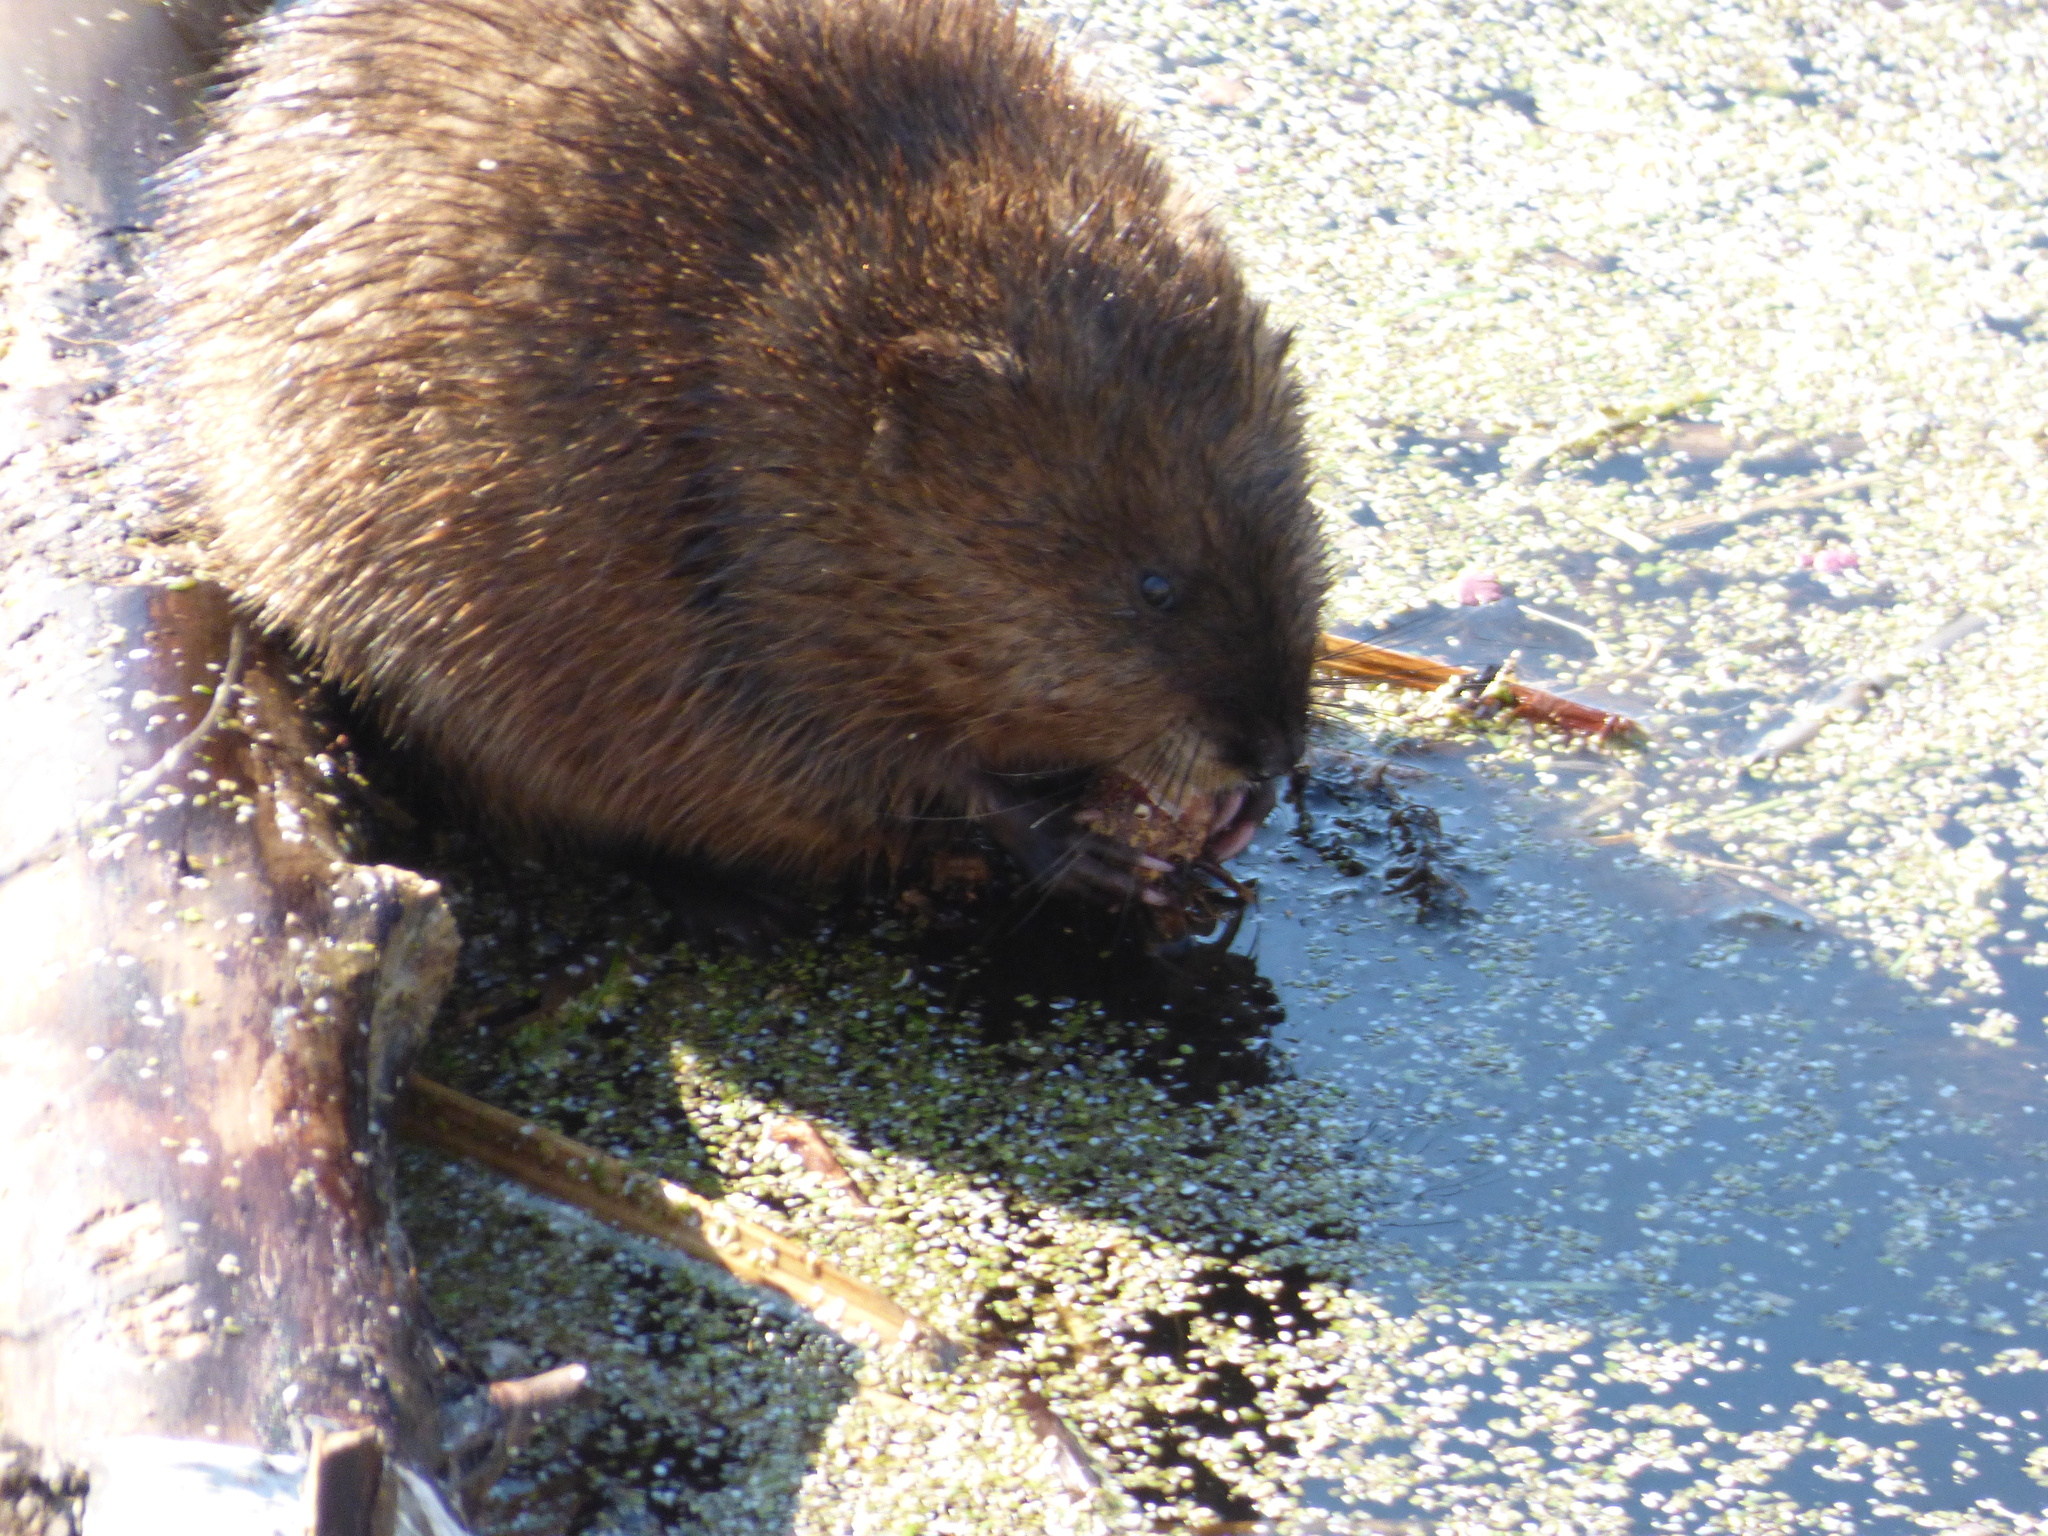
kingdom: Animalia
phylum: Chordata
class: Mammalia
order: Rodentia
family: Cricetidae
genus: Ondatra
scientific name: Ondatra zibethicus
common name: Muskrat
